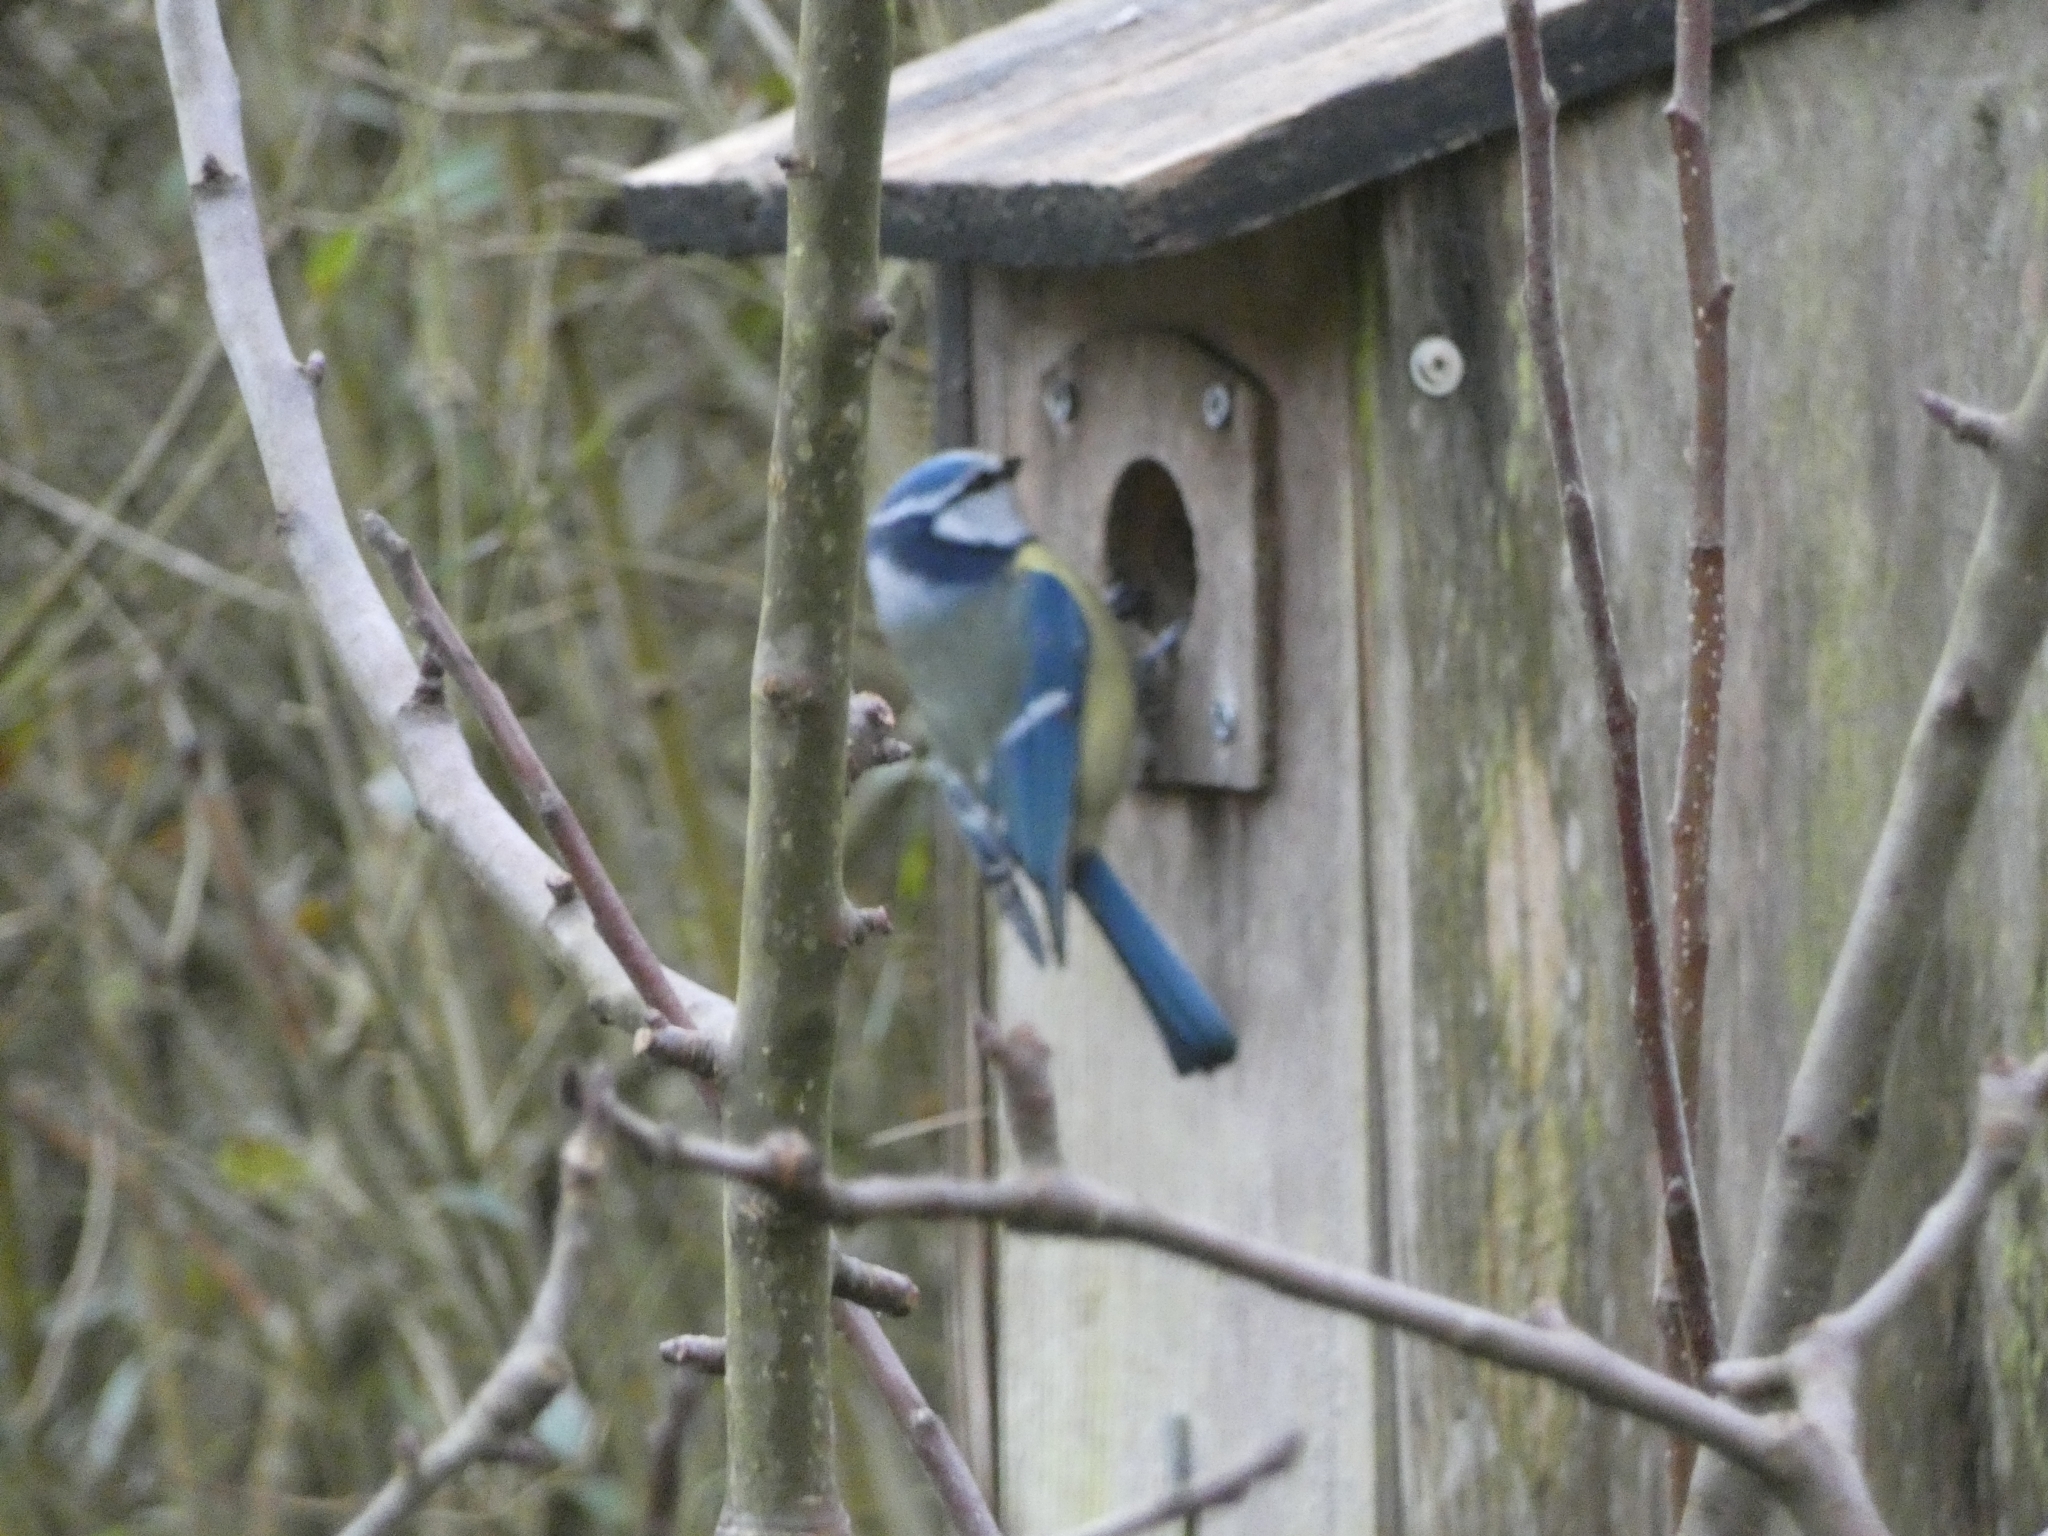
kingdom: Animalia
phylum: Chordata
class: Aves
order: Passeriformes
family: Paridae
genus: Cyanistes
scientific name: Cyanistes caeruleus
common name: Eurasian blue tit
